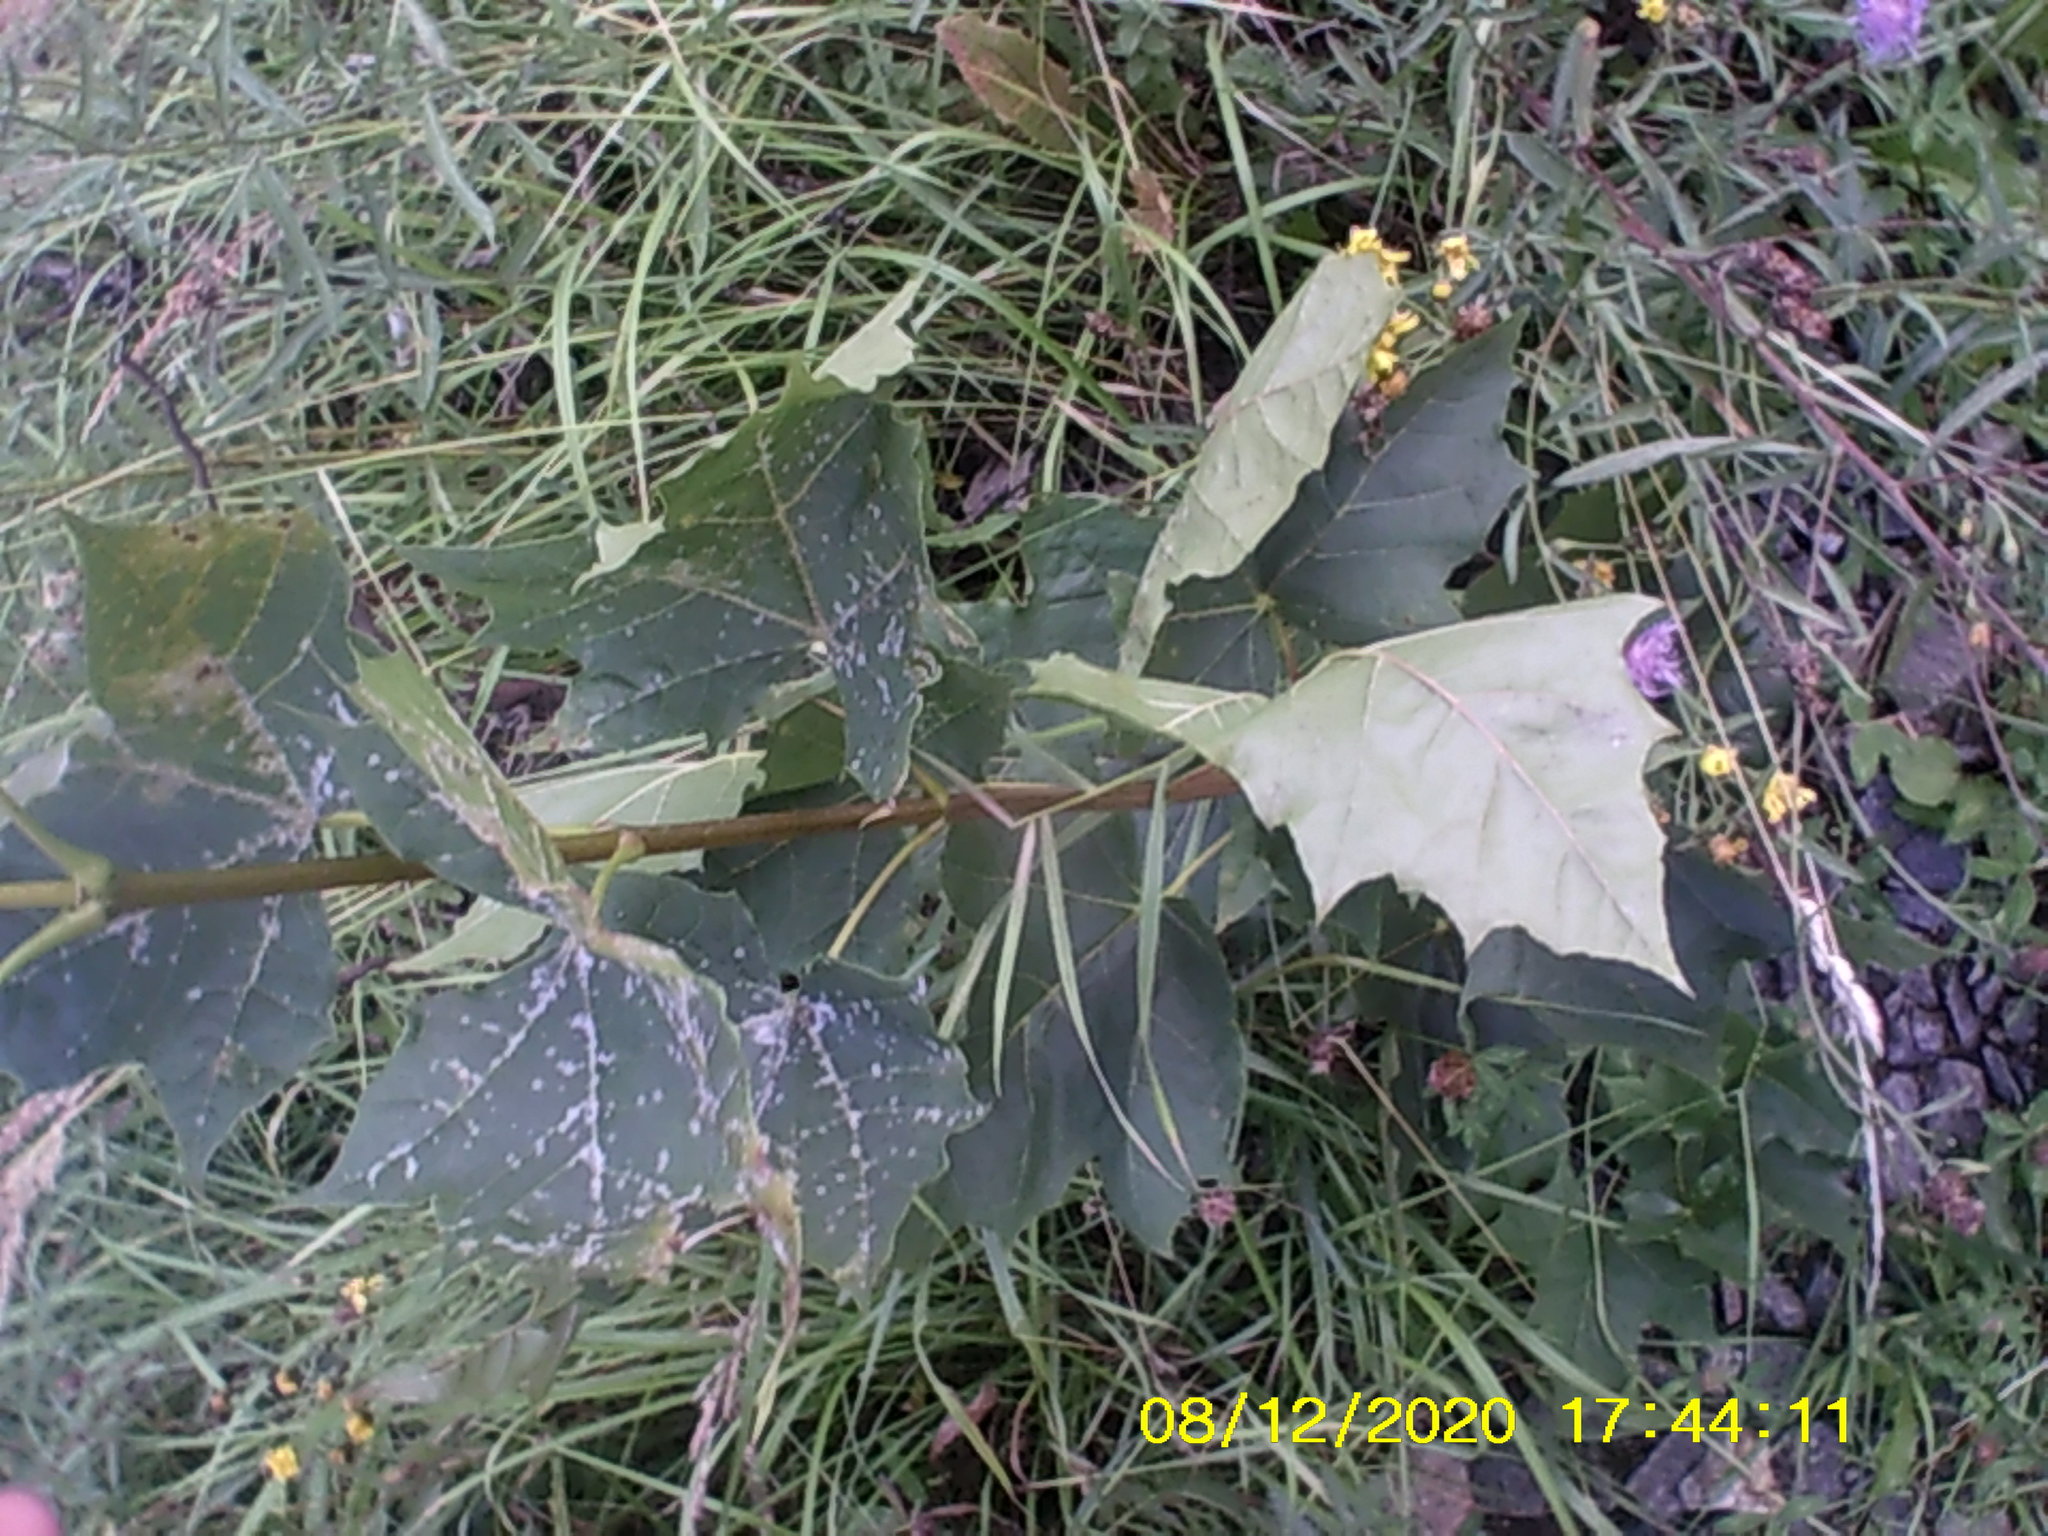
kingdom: Plantae
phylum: Tracheophyta
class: Magnoliopsida
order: Sapindales
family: Sapindaceae
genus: Acer
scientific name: Acer platanoides
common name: Norway maple
